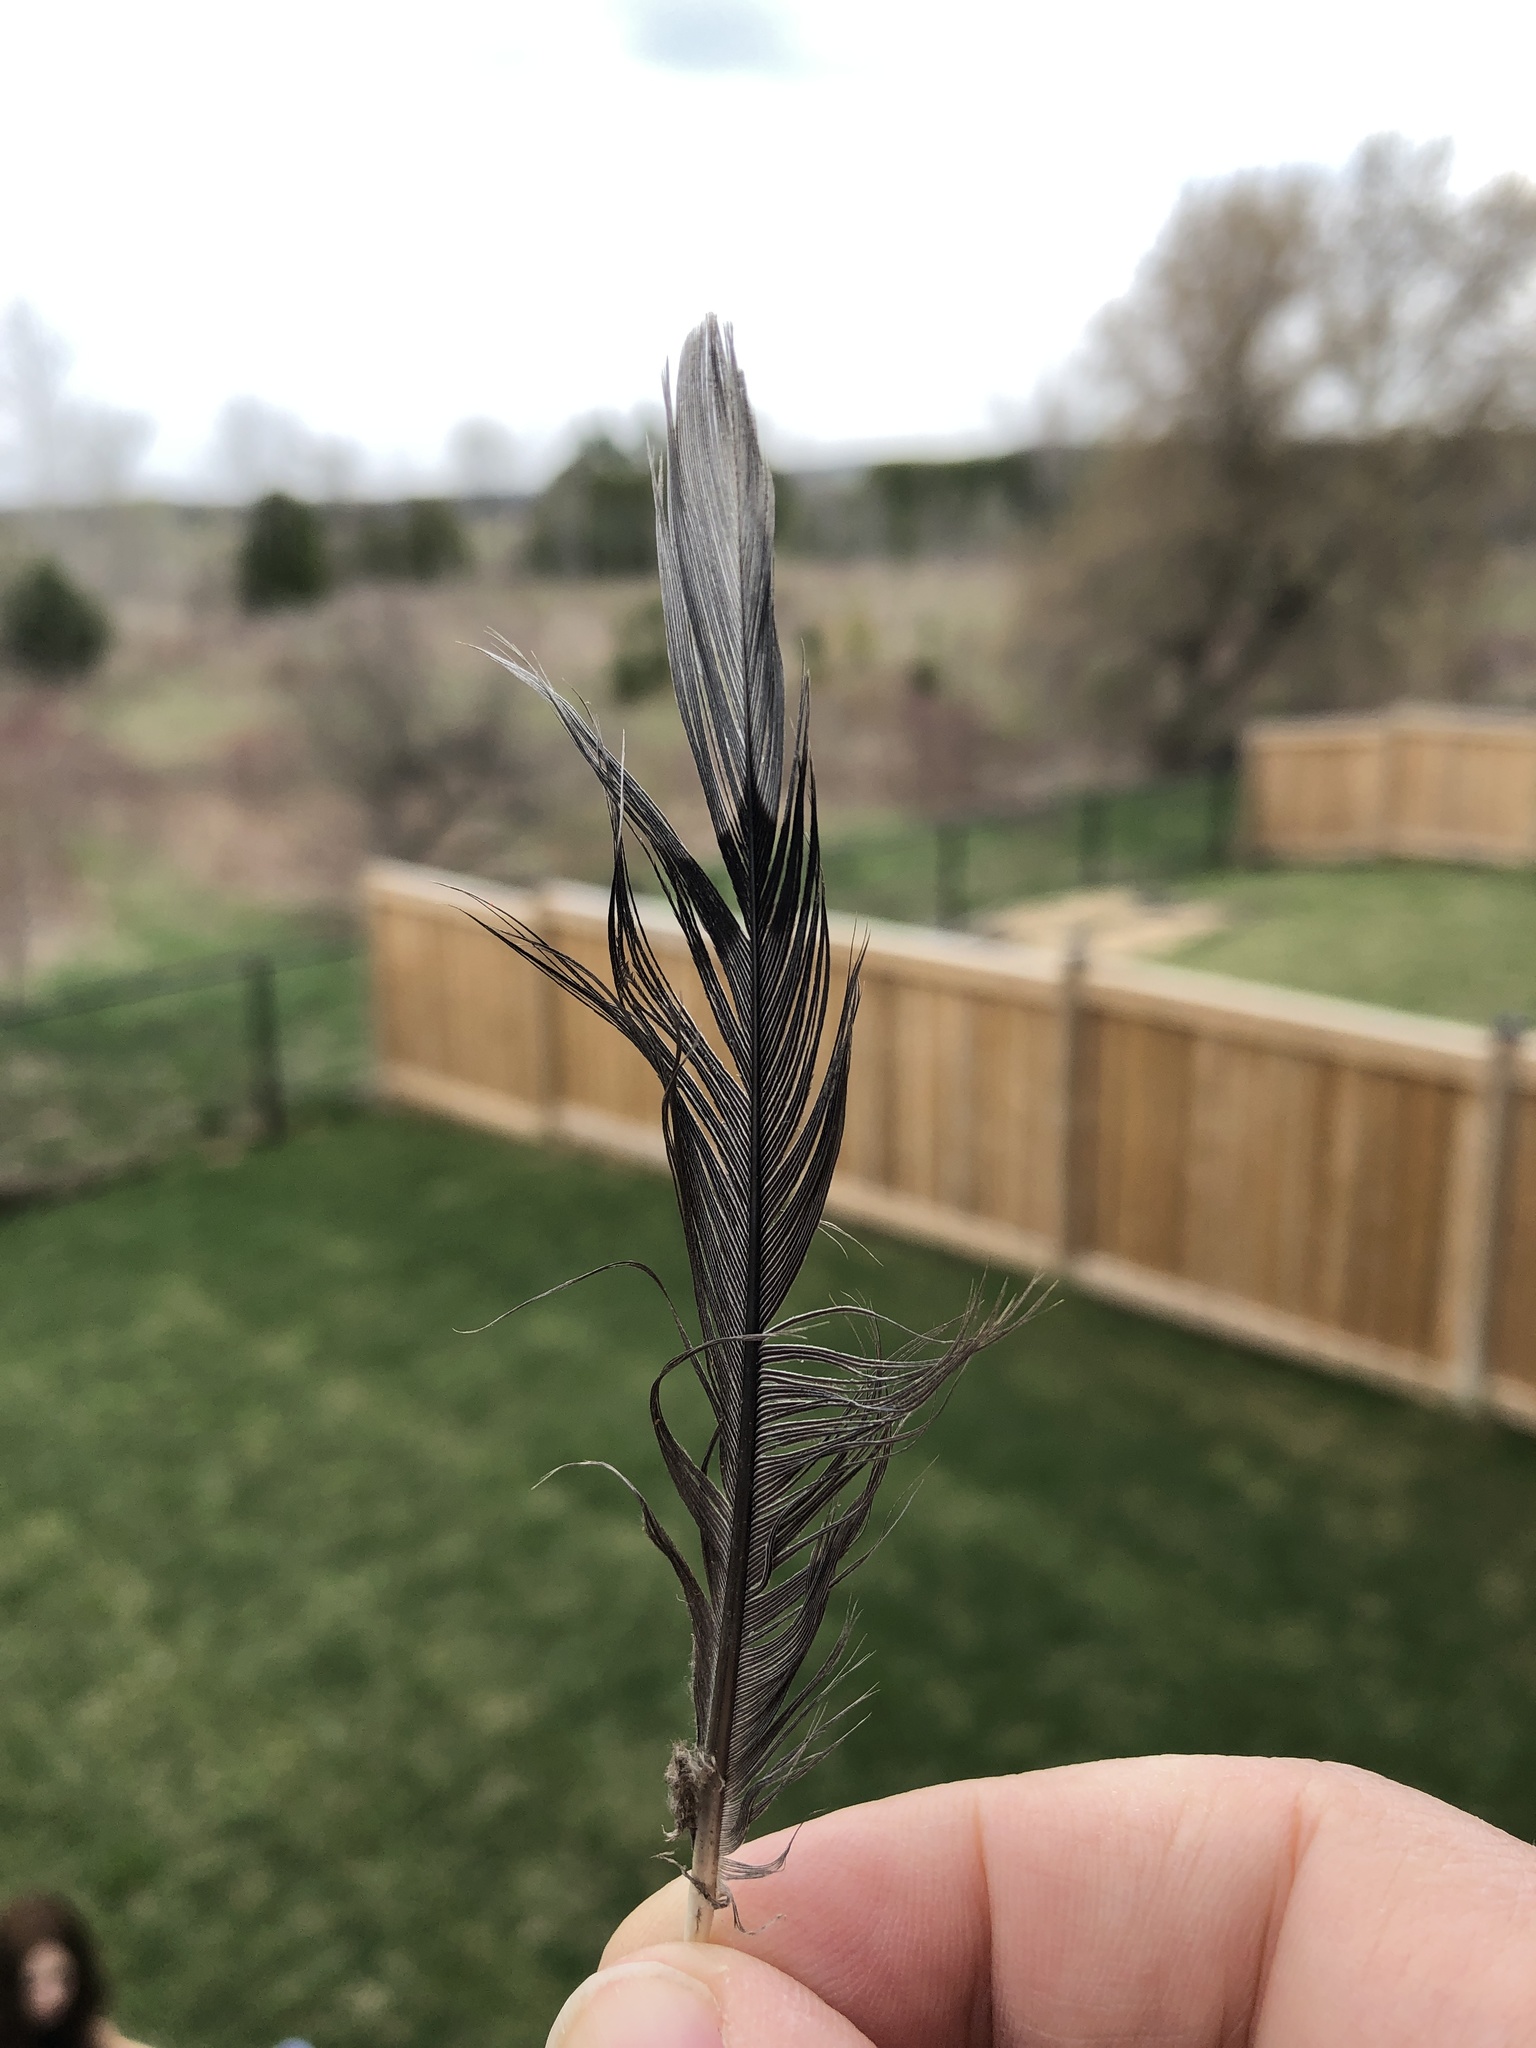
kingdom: Animalia
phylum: Chordata
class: Aves
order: Columbiformes
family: Columbidae
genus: Zenaida
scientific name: Zenaida macroura
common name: Mourning dove
